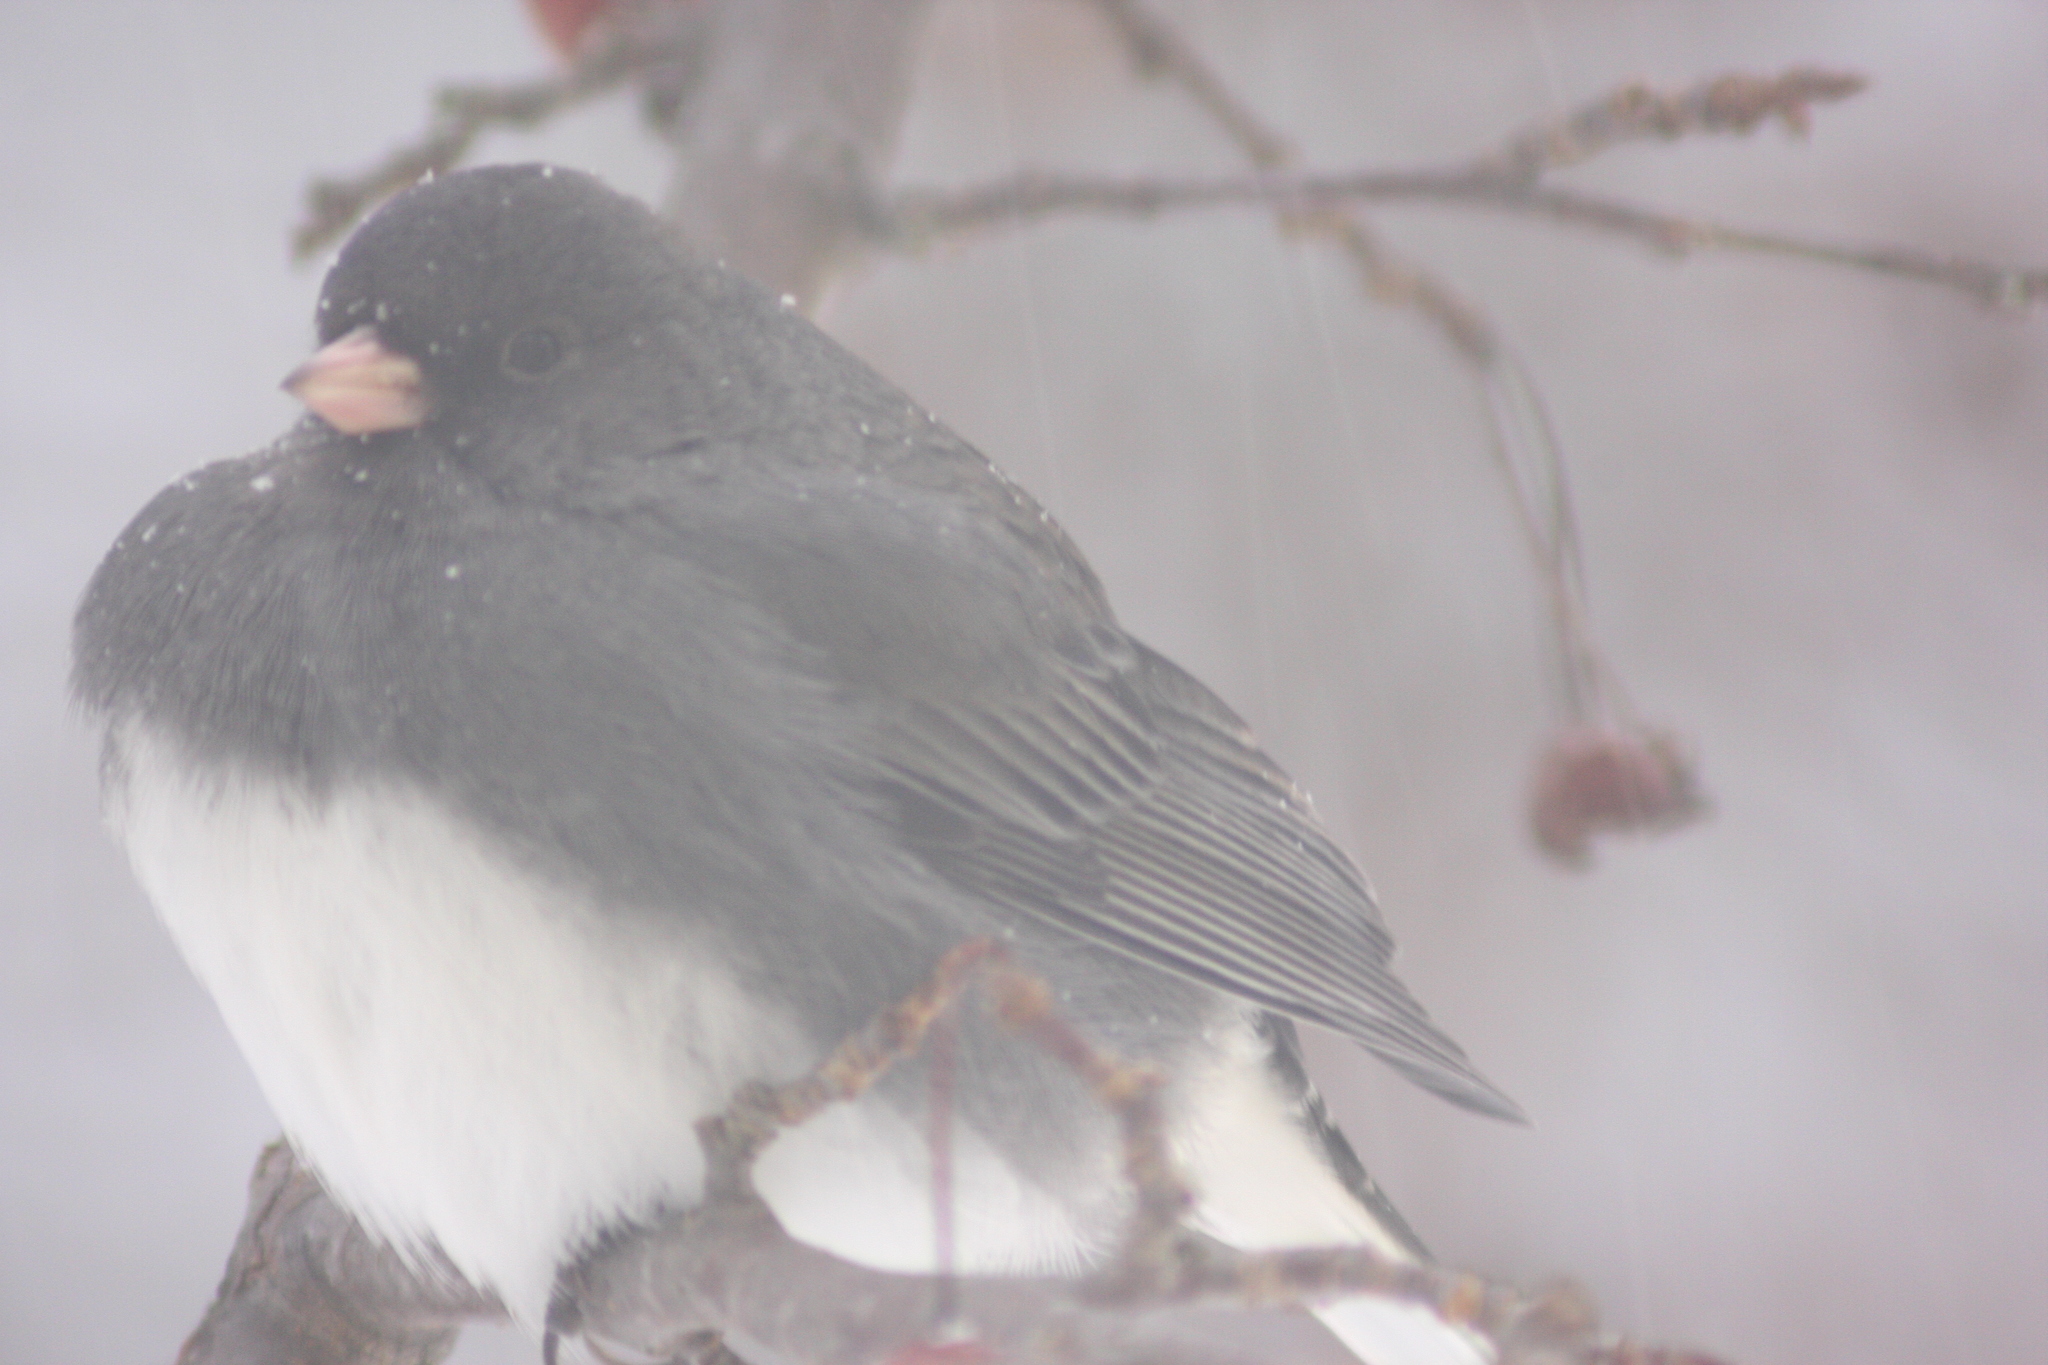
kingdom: Animalia
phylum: Chordata
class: Aves
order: Passeriformes
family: Passerellidae
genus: Junco
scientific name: Junco hyemalis
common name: Dark-eyed junco
